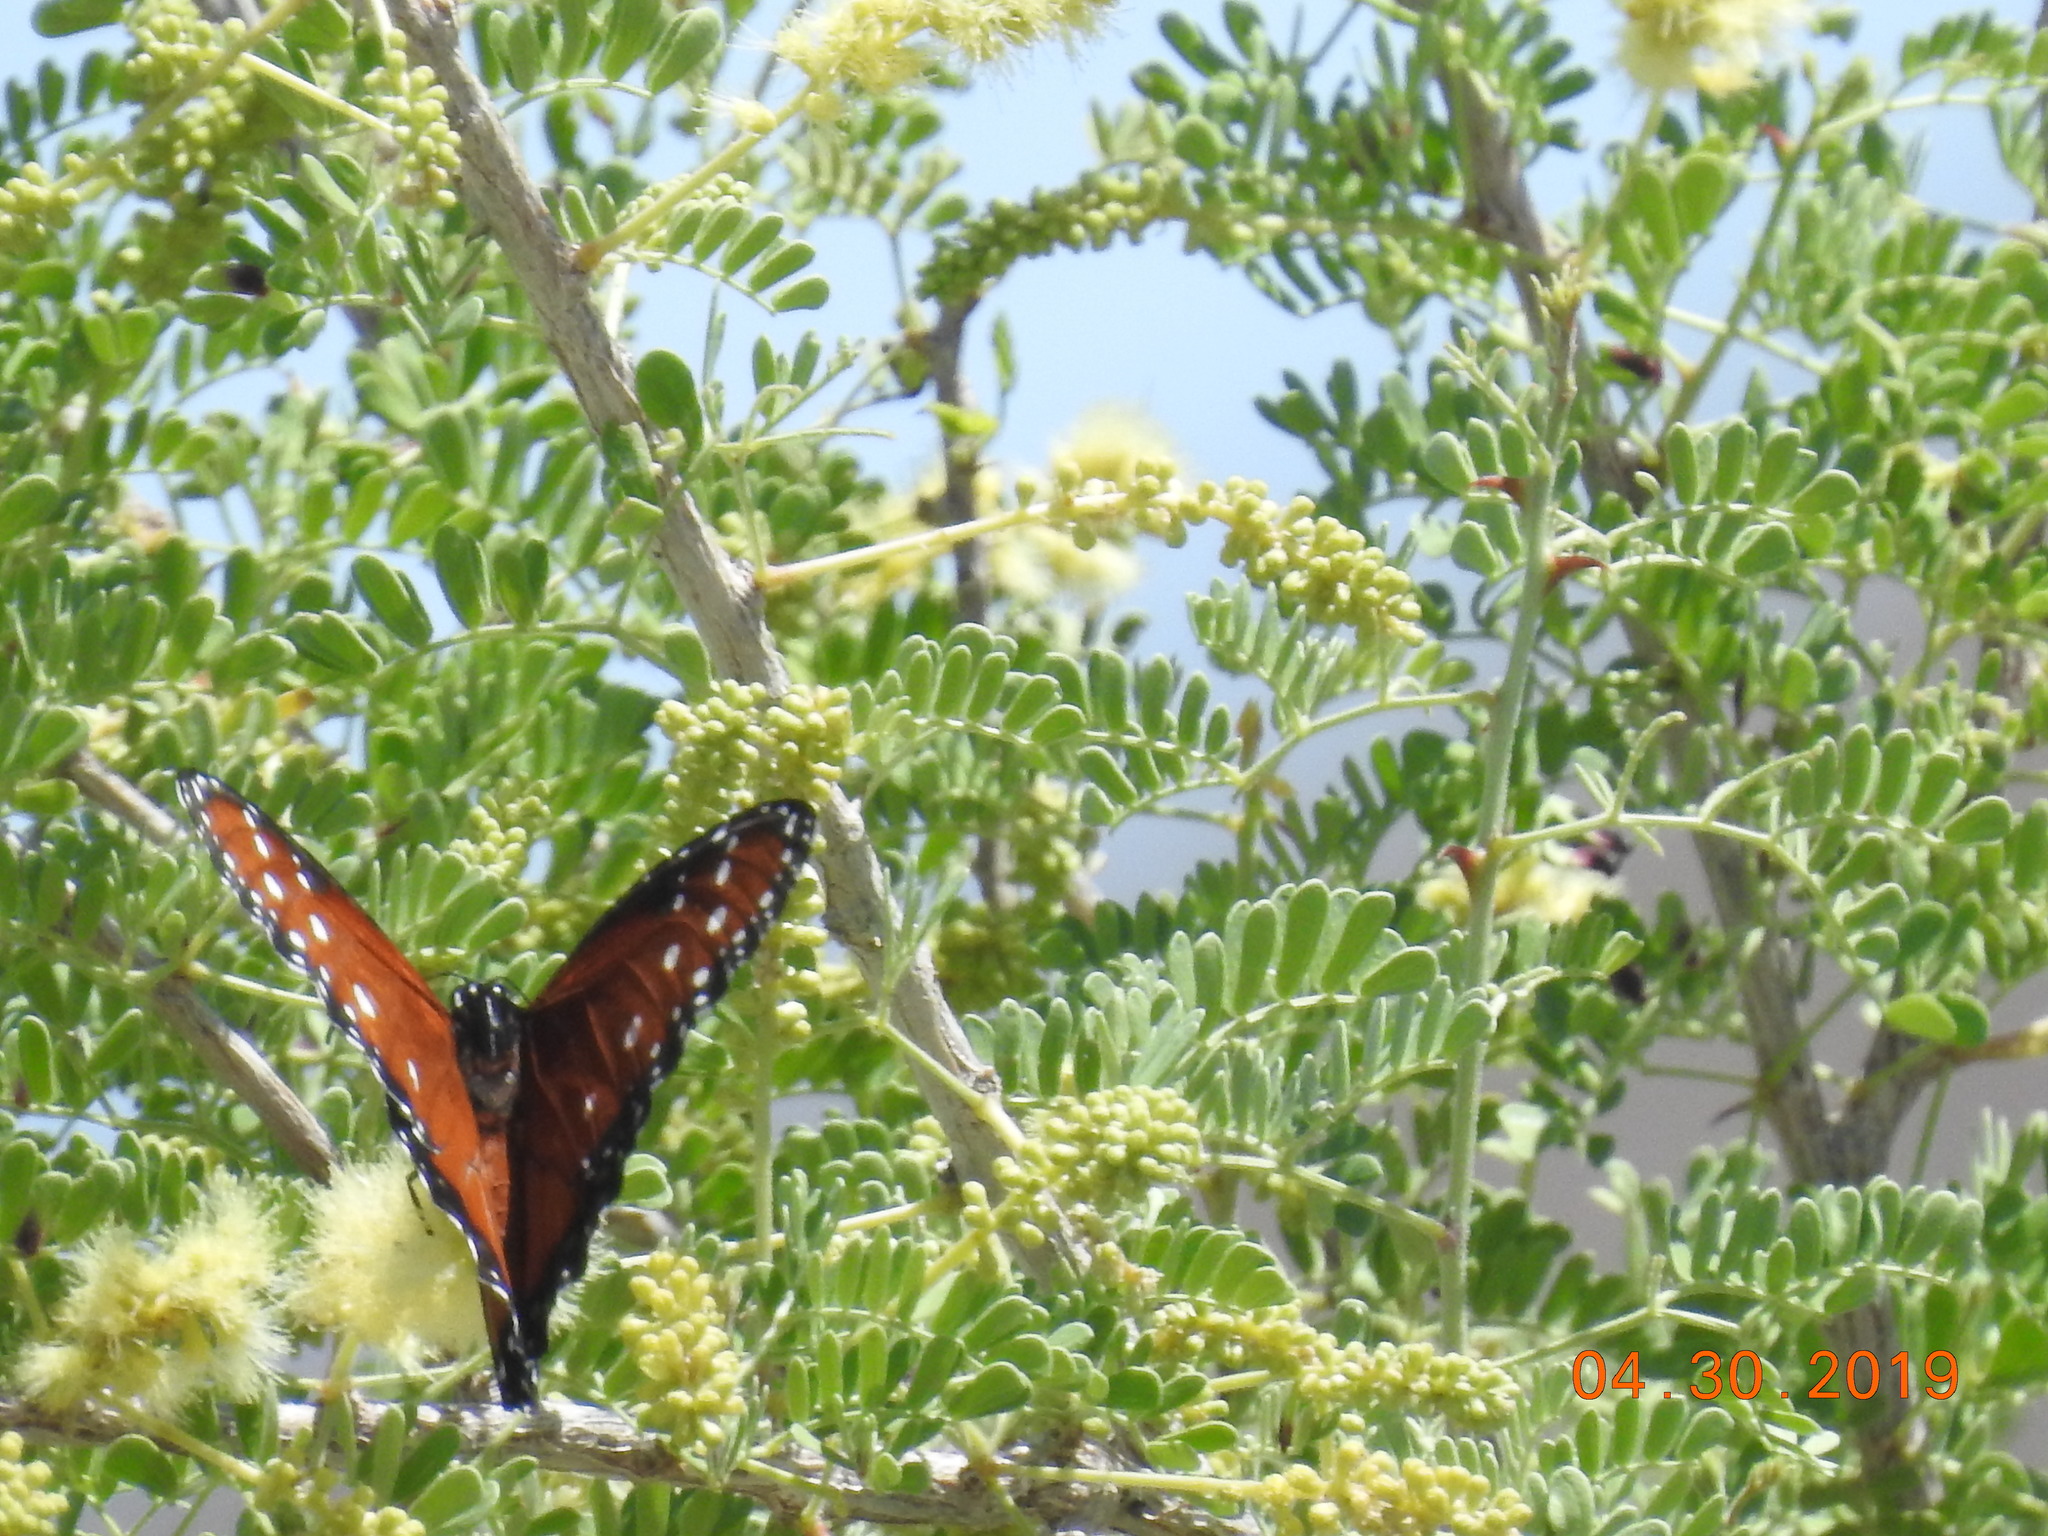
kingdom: Animalia
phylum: Arthropoda
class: Insecta
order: Lepidoptera
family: Nymphalidae
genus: Danaus
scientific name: Danaus gilippus
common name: Queen
